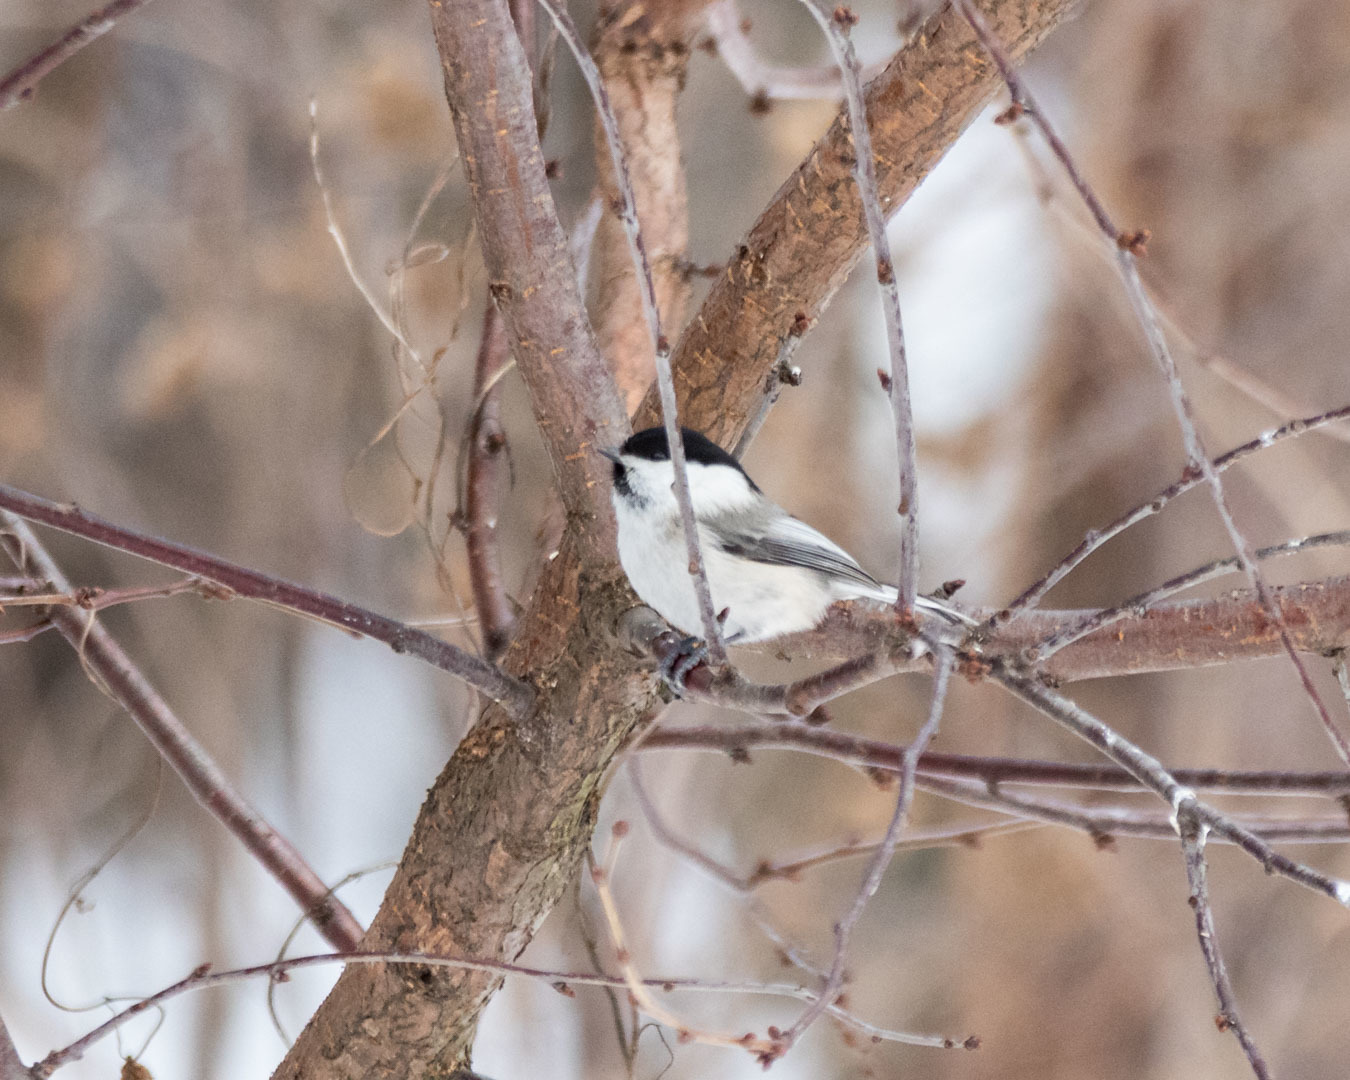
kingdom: Animalia
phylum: Chordata
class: Aves
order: Passeriformes
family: Paridae
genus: Poecile
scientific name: Poecile montanus
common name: Willow tit
